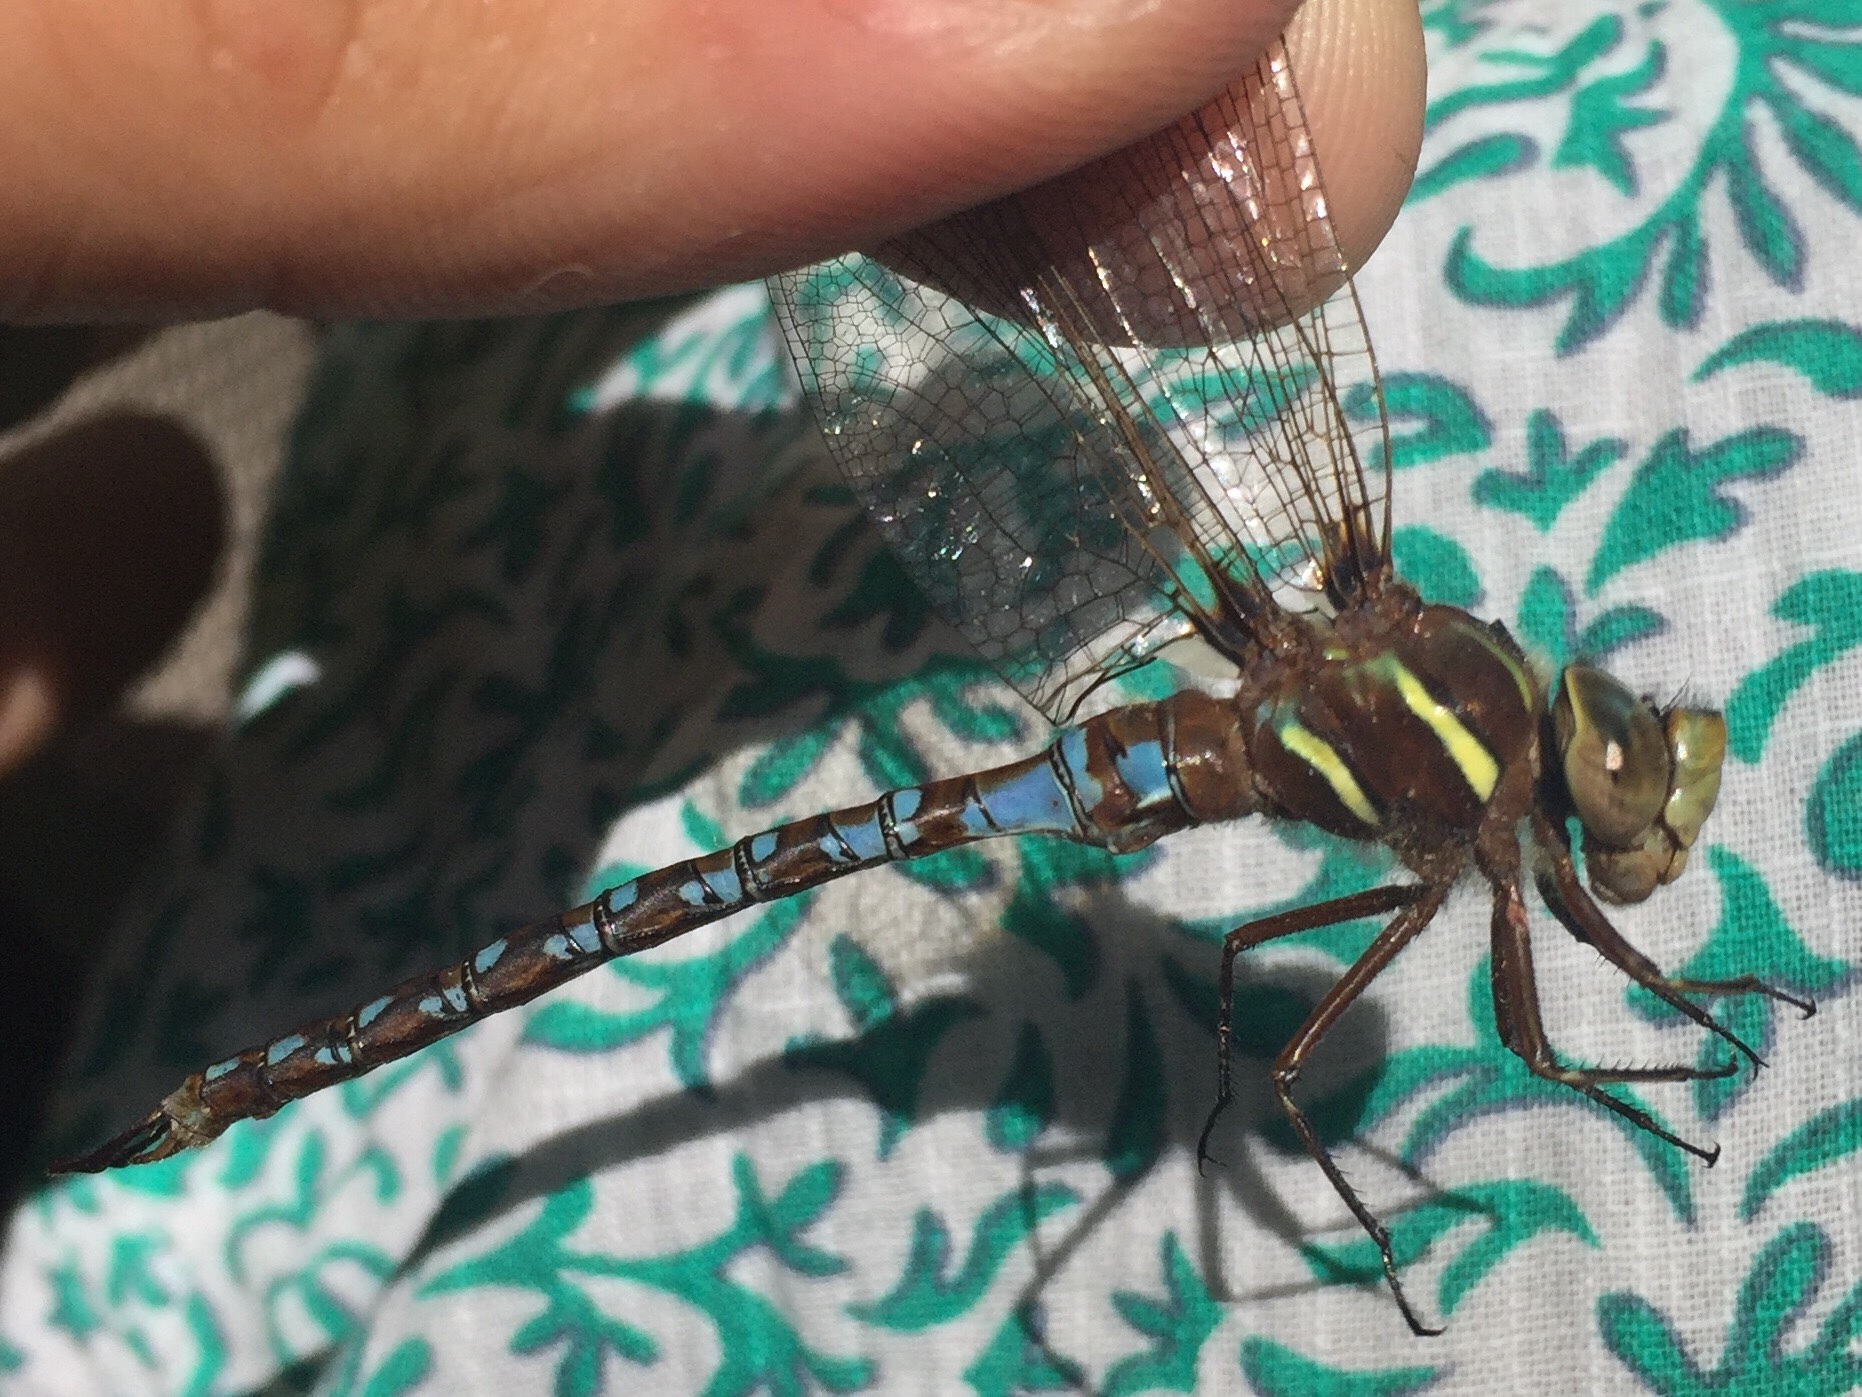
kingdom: Animalia
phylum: Arthropoda
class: Insecta
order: Odonata
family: Aeshnidae
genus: Basiaeschna
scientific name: Basiaeschna janata
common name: Springtime darner
